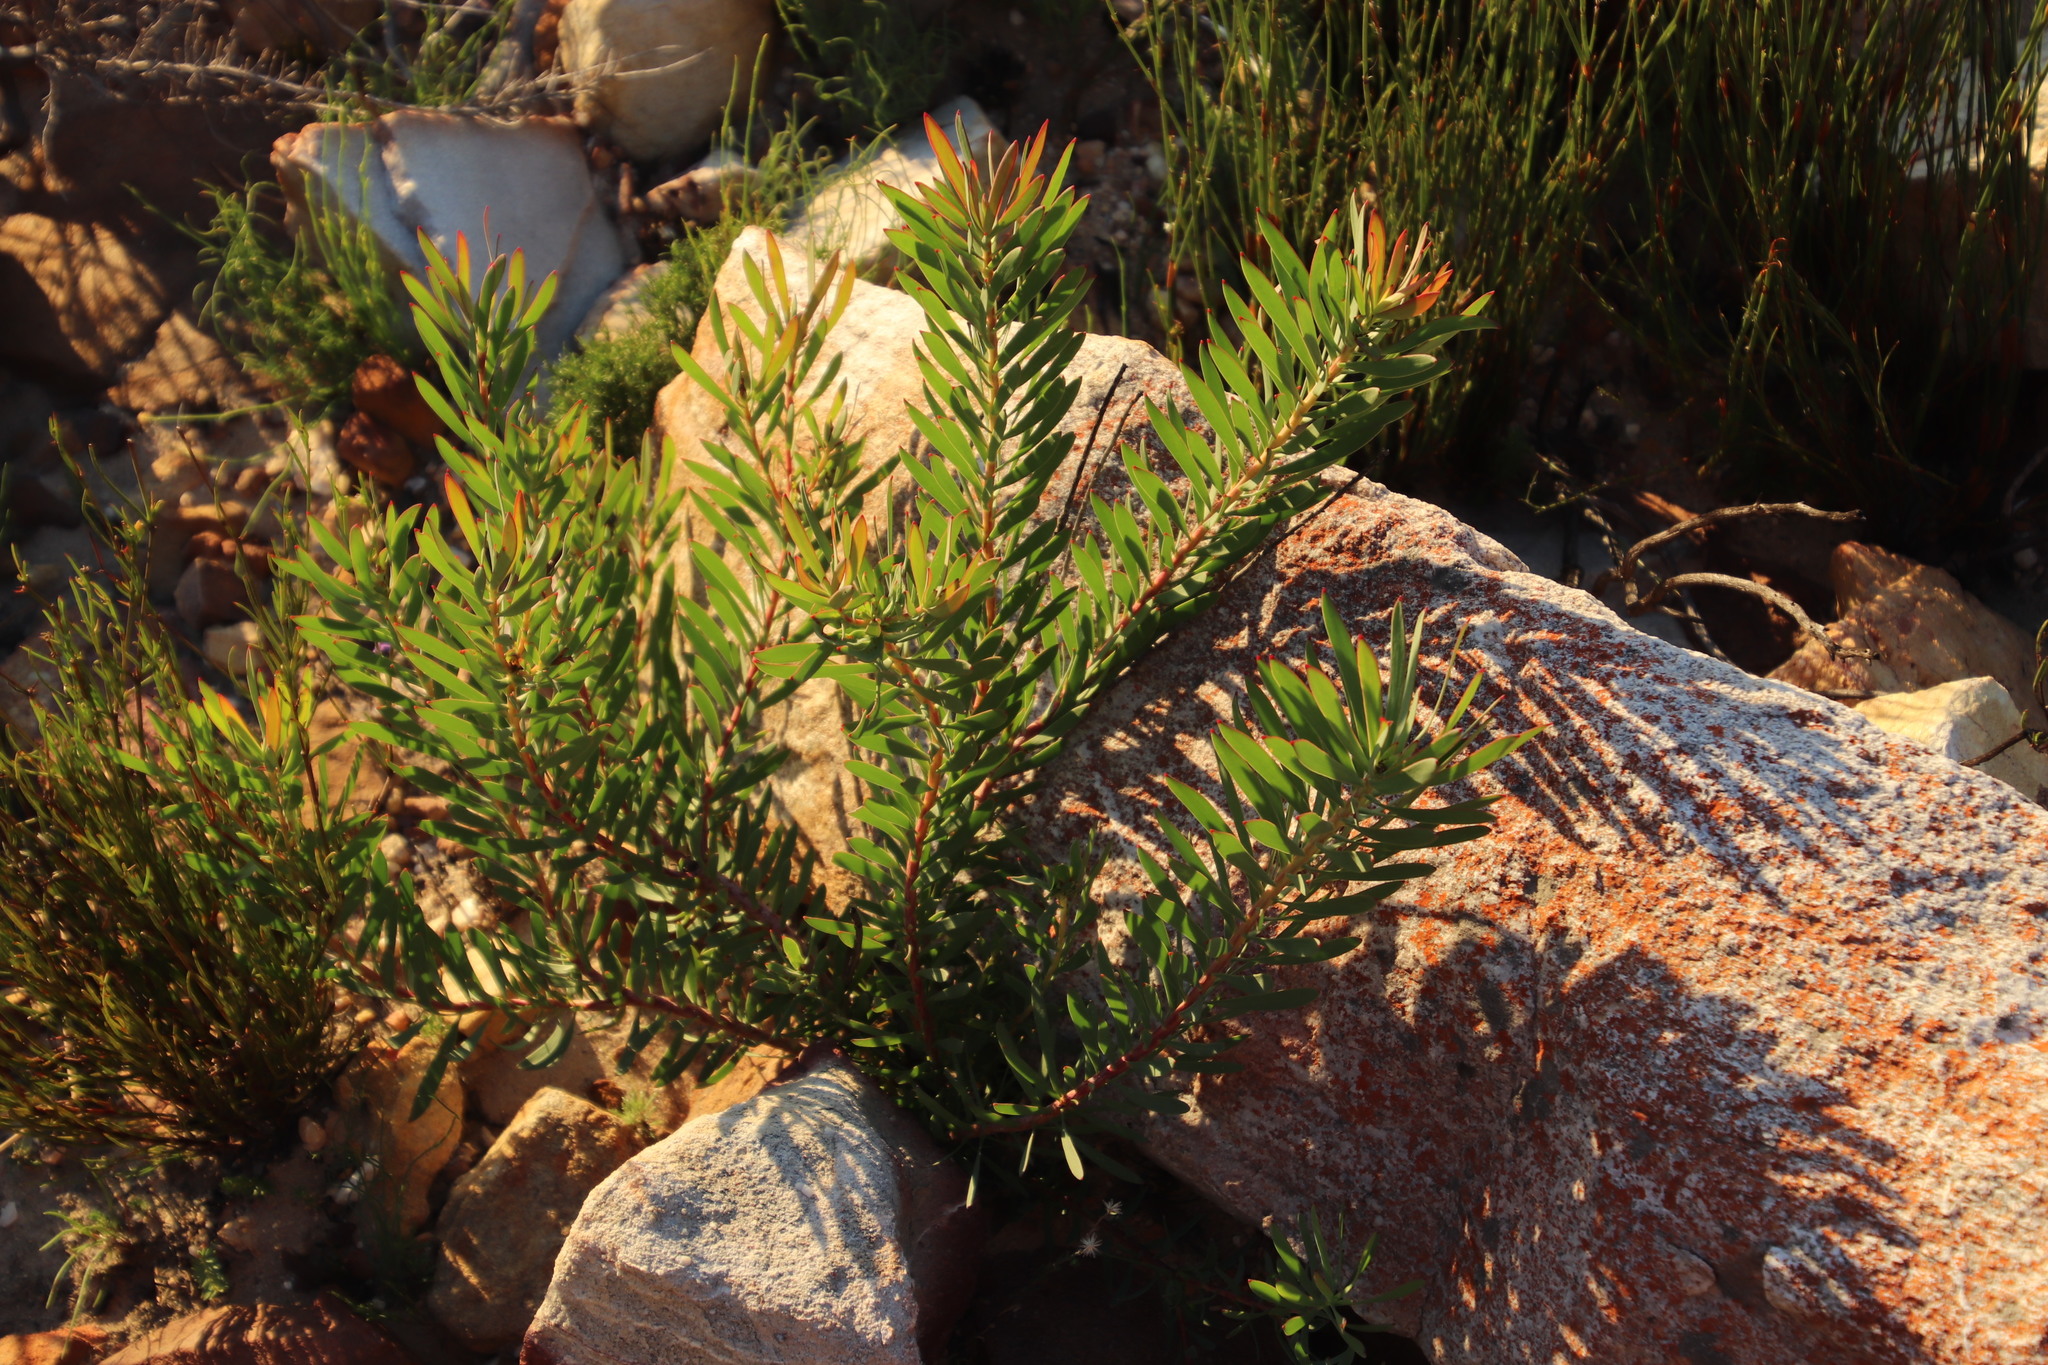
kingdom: Plantae
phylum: Tracheophyta
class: Magnoliopsida
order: Proteales
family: Proteaceae
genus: Leucadendron
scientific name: Leucadendron sessile
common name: Western sunbush
